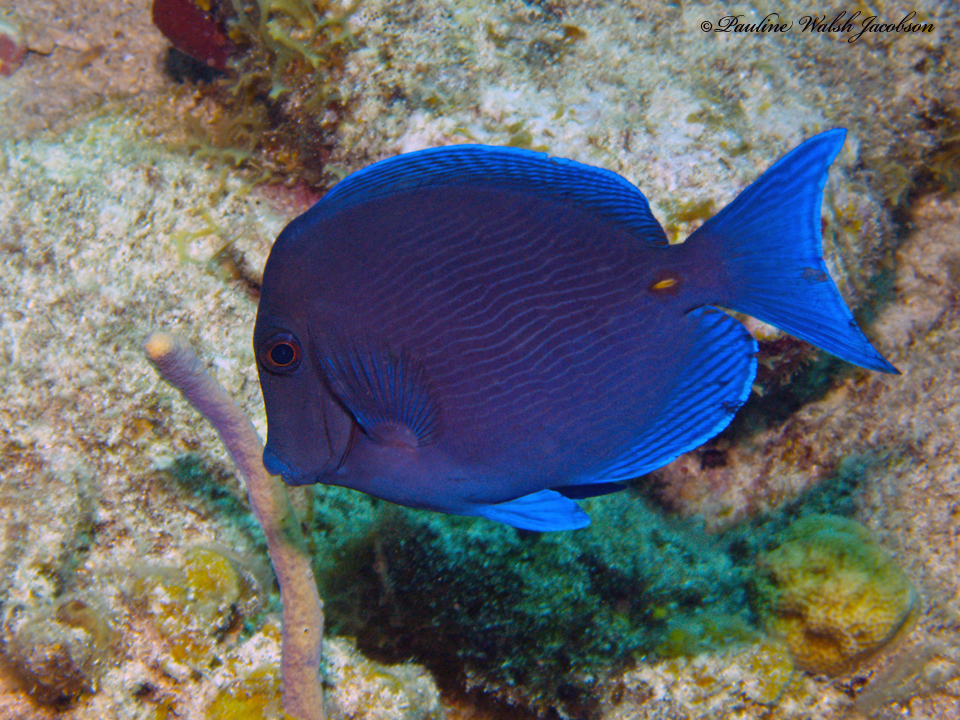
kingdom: Animalia
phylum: Chordata
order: Perciformes
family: Acanthuridae
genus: Acanthurus
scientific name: Acanthurus coeruleus
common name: Blue tang
